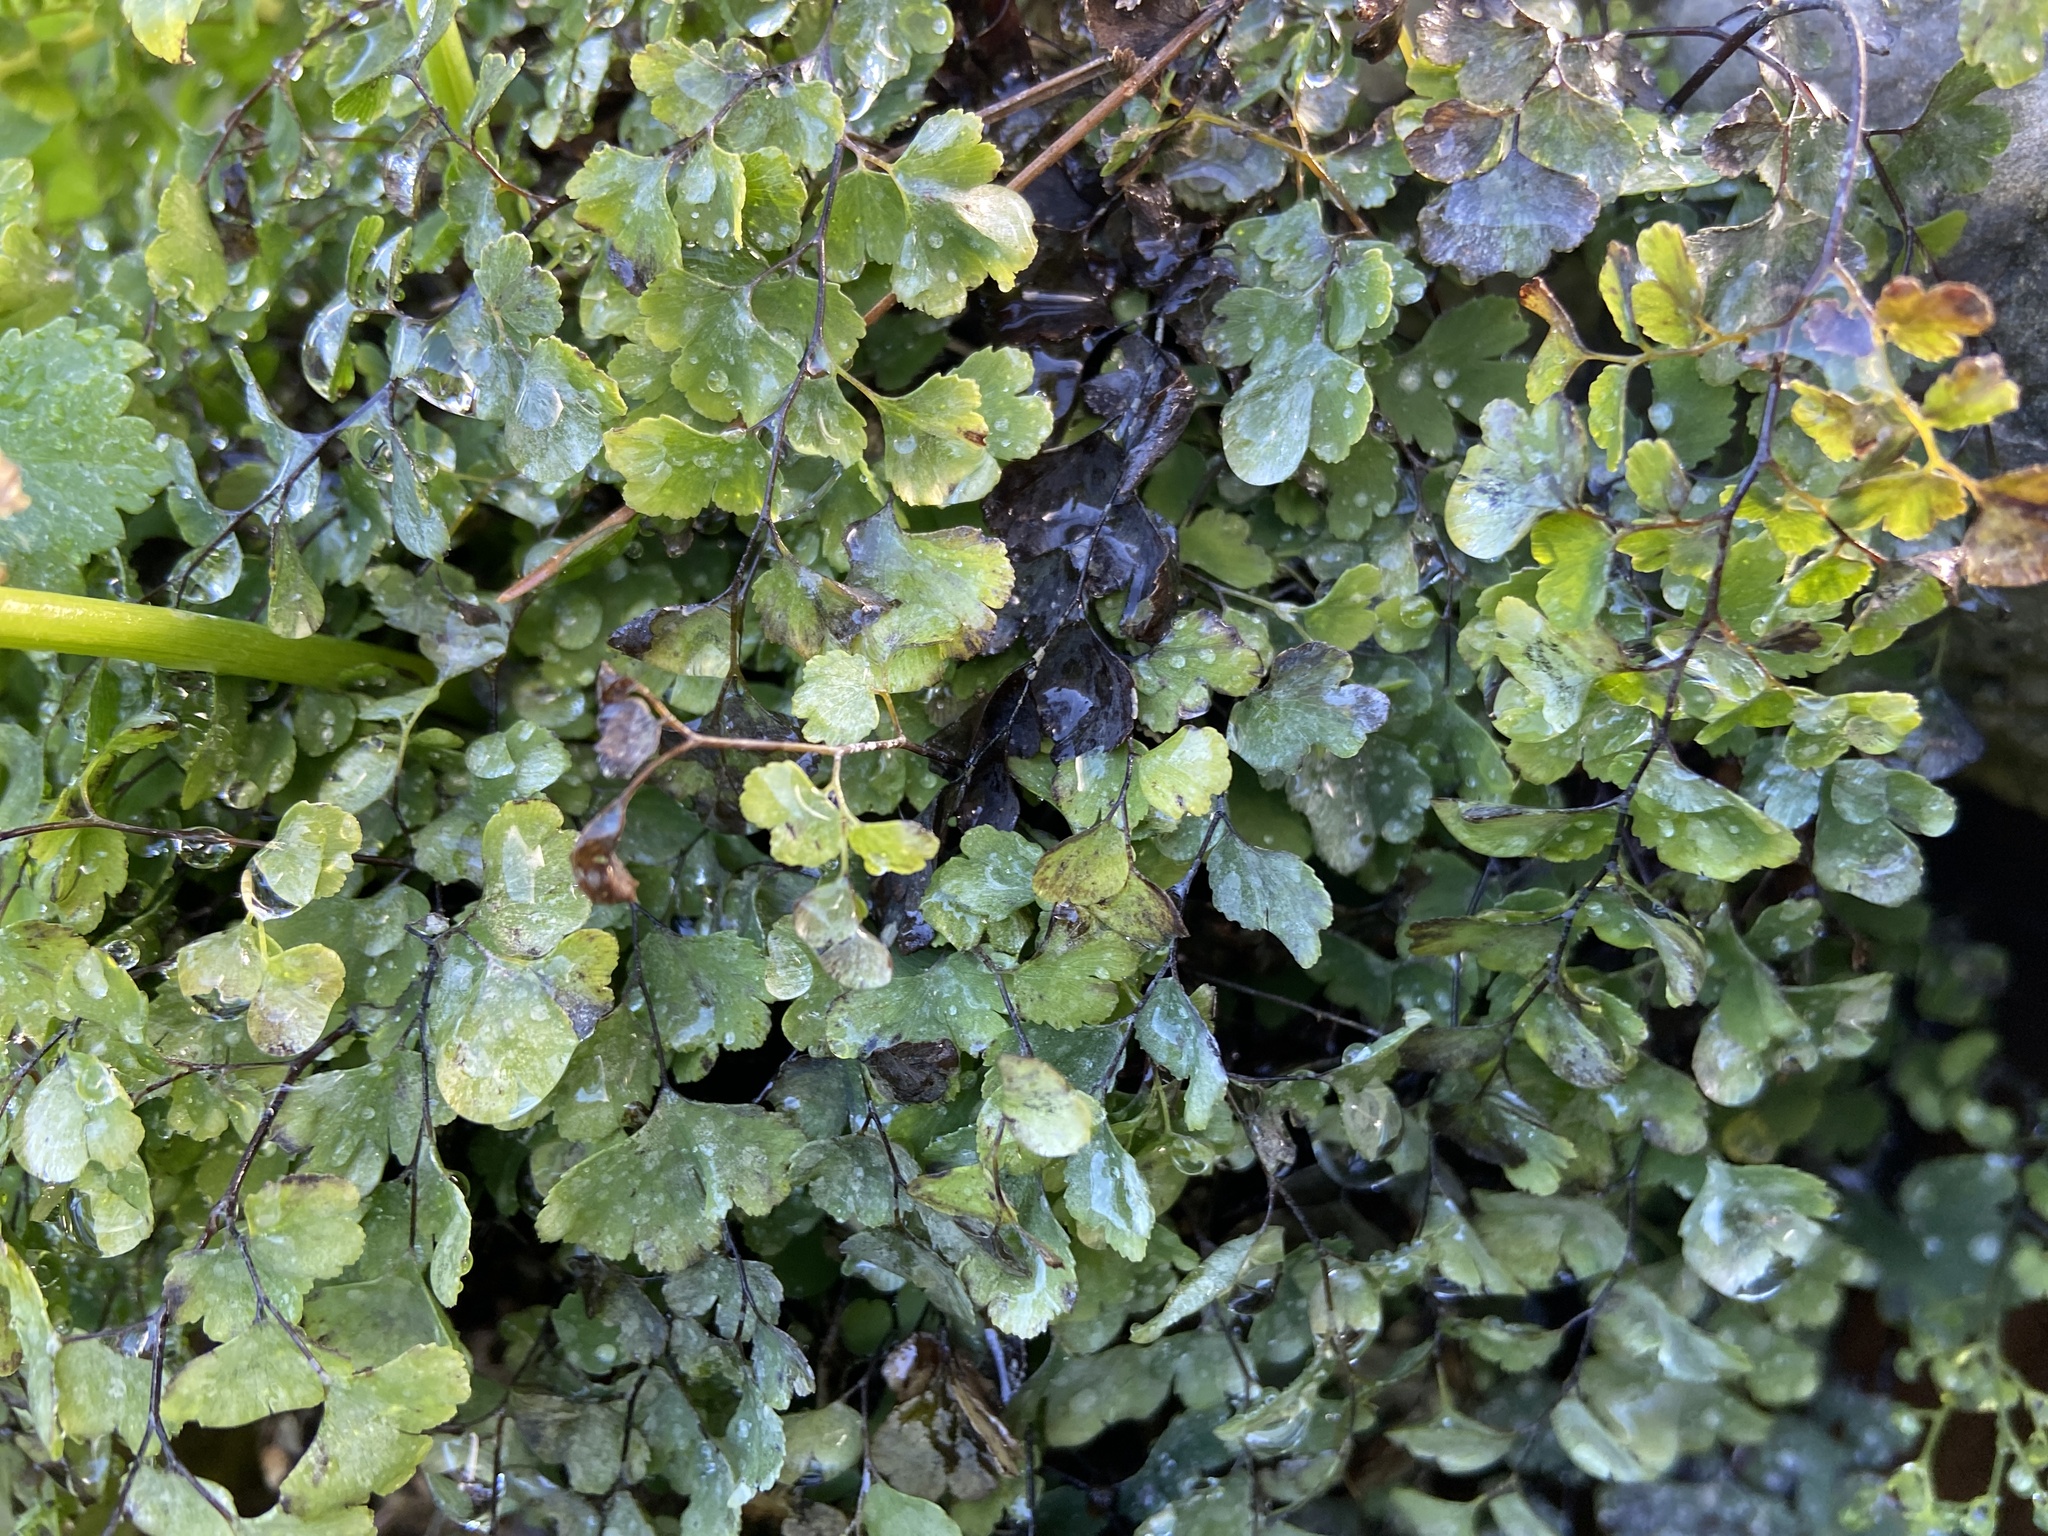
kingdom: Plantae
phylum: Tracheophyta
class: Polypodiopsida
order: Polypodiales
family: Pteridaceae
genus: Adiantum
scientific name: Adiantum capillus-veneris
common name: Maidenhair fern
